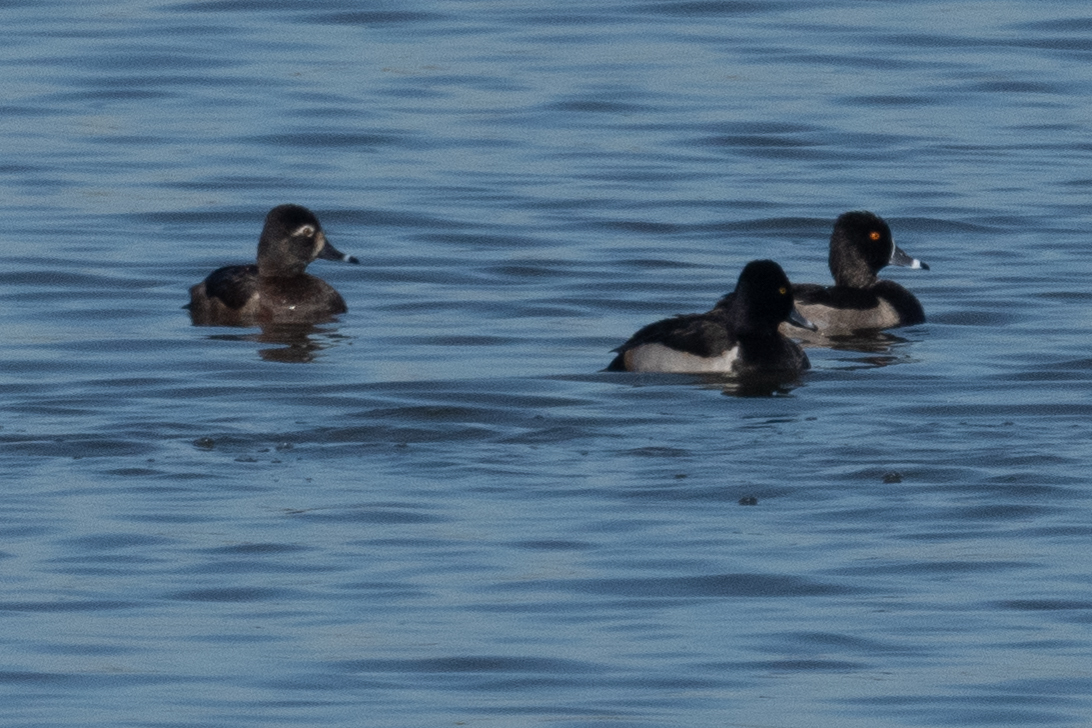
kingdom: Animalia
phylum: Chordata
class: Aves
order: Anseriformes
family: Anatidae
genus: Aythya
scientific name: Aythya collaris
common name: Ring-necked duck
